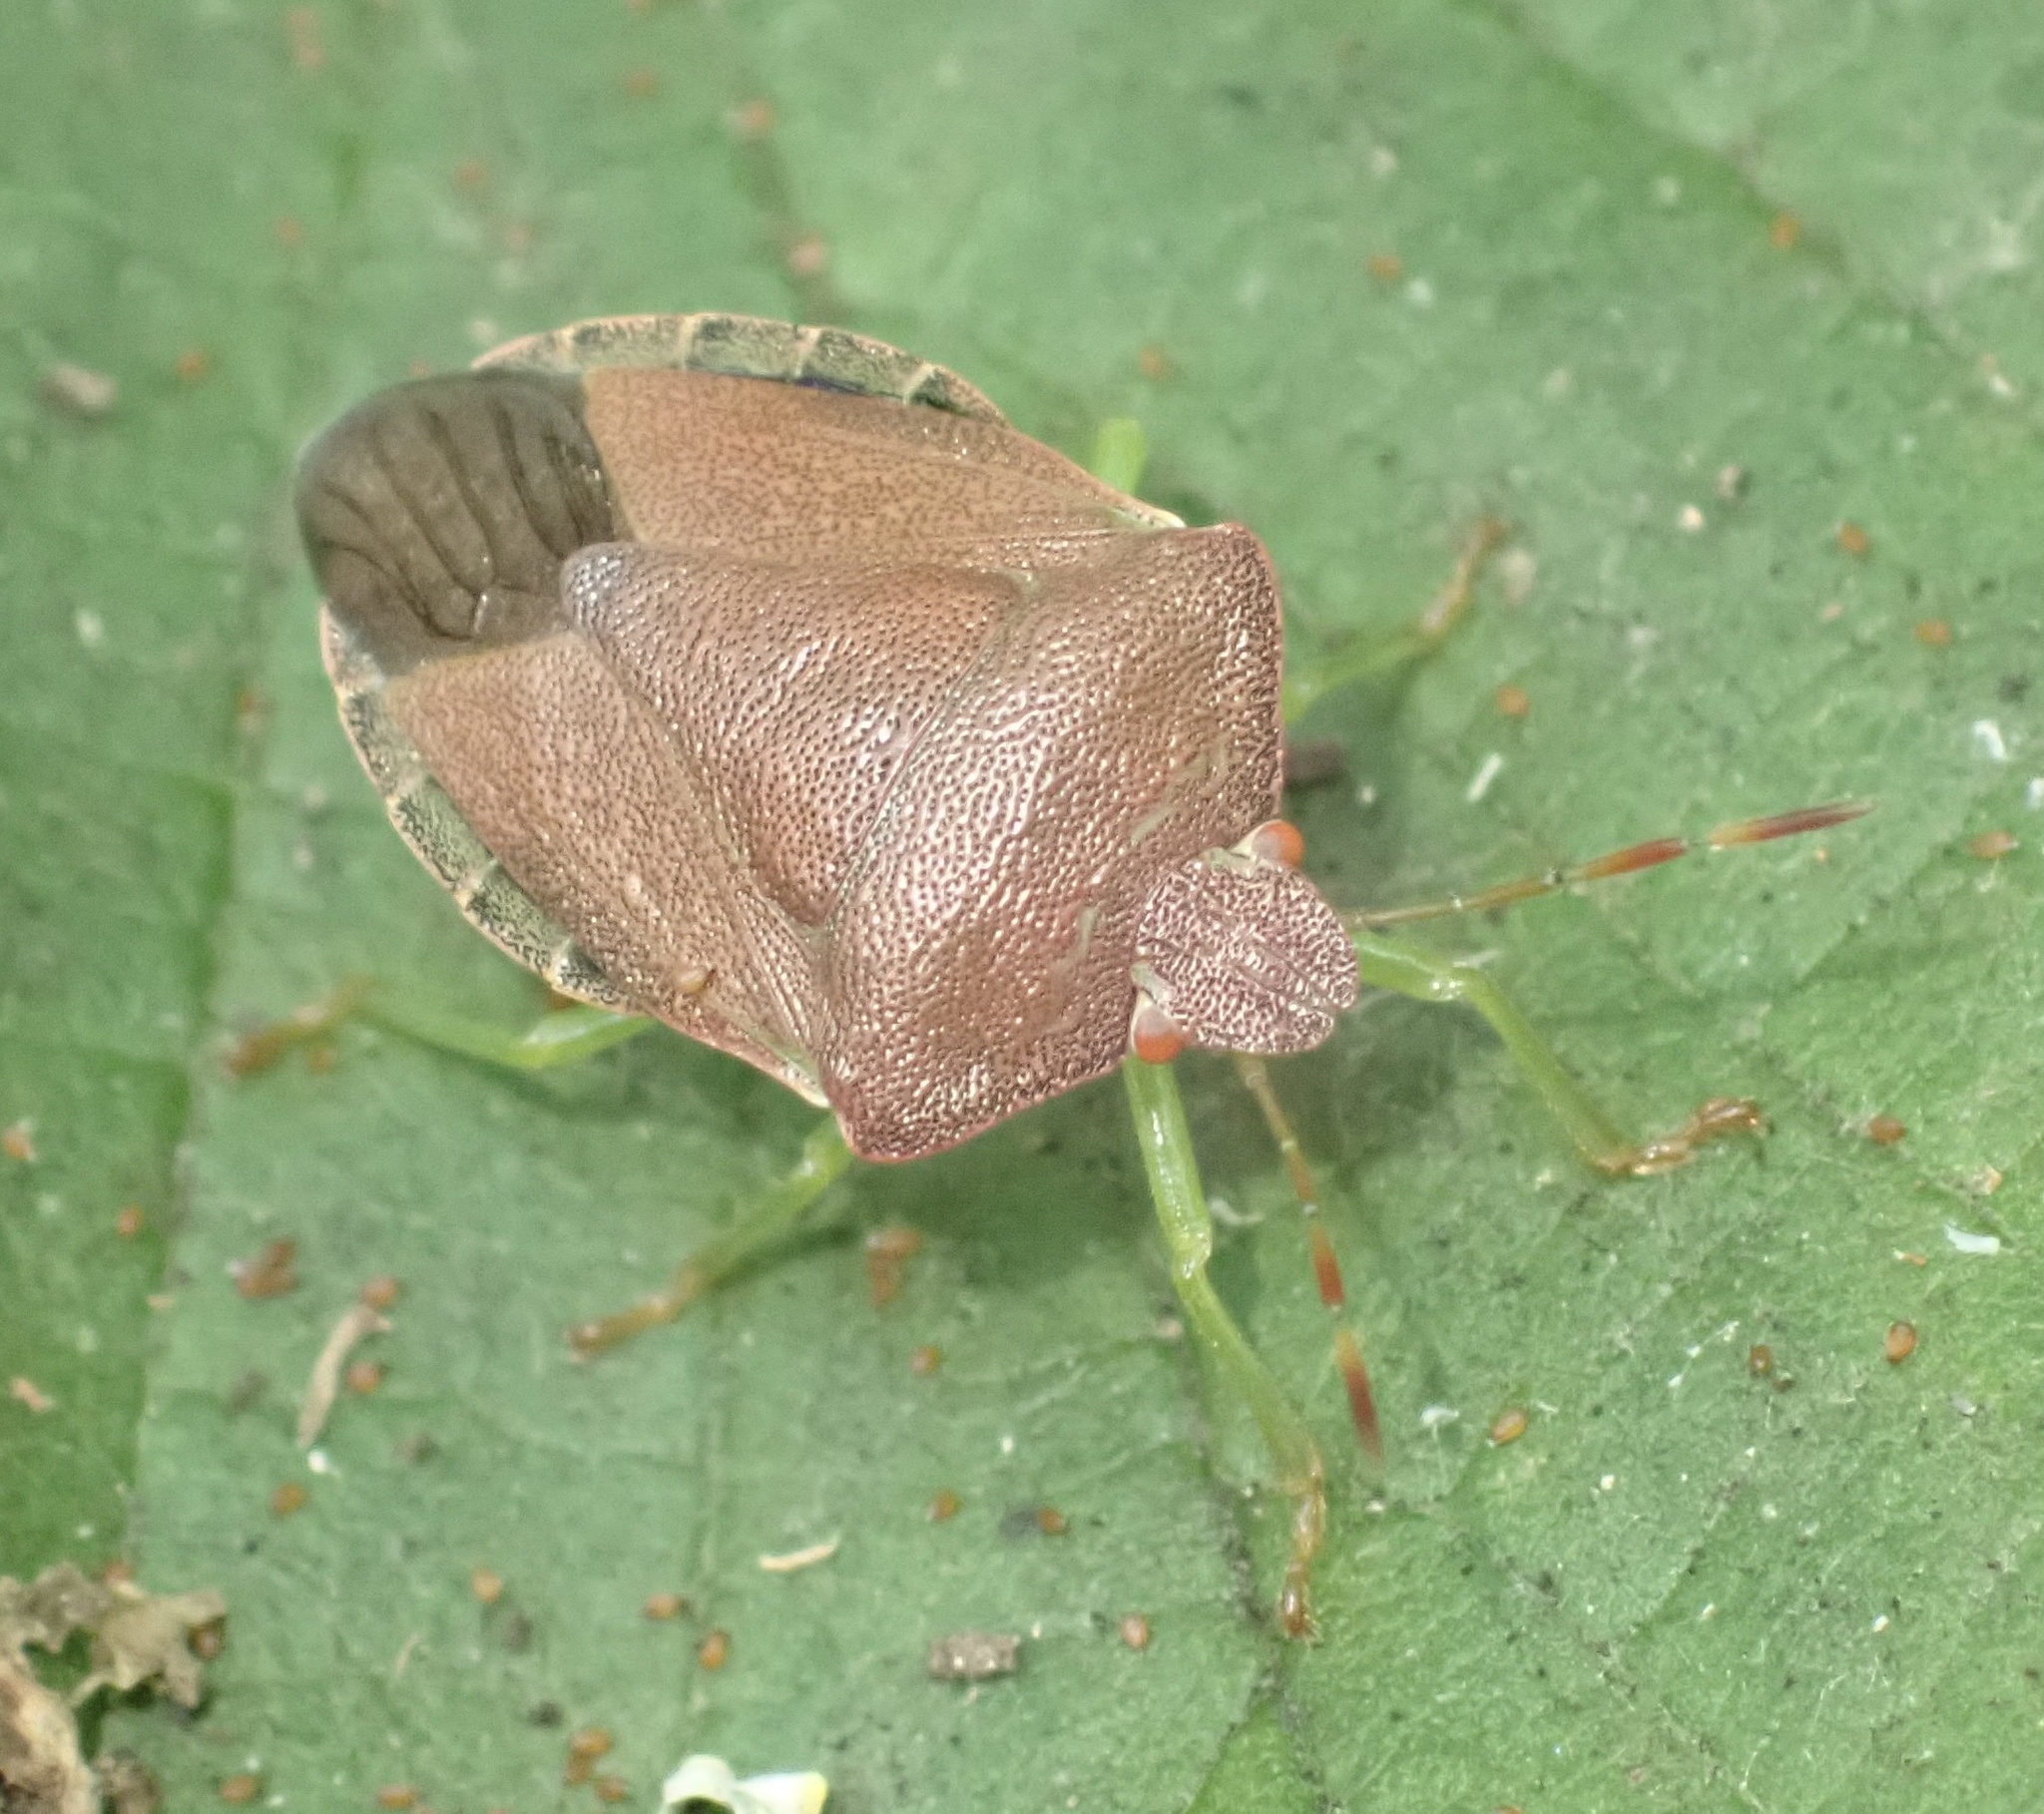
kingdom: Animalia
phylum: Arthropoda
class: Insecta
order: Hemiptera
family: Pentatomidae
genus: Palomena
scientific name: Palomena prasina
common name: Green shieldbug
